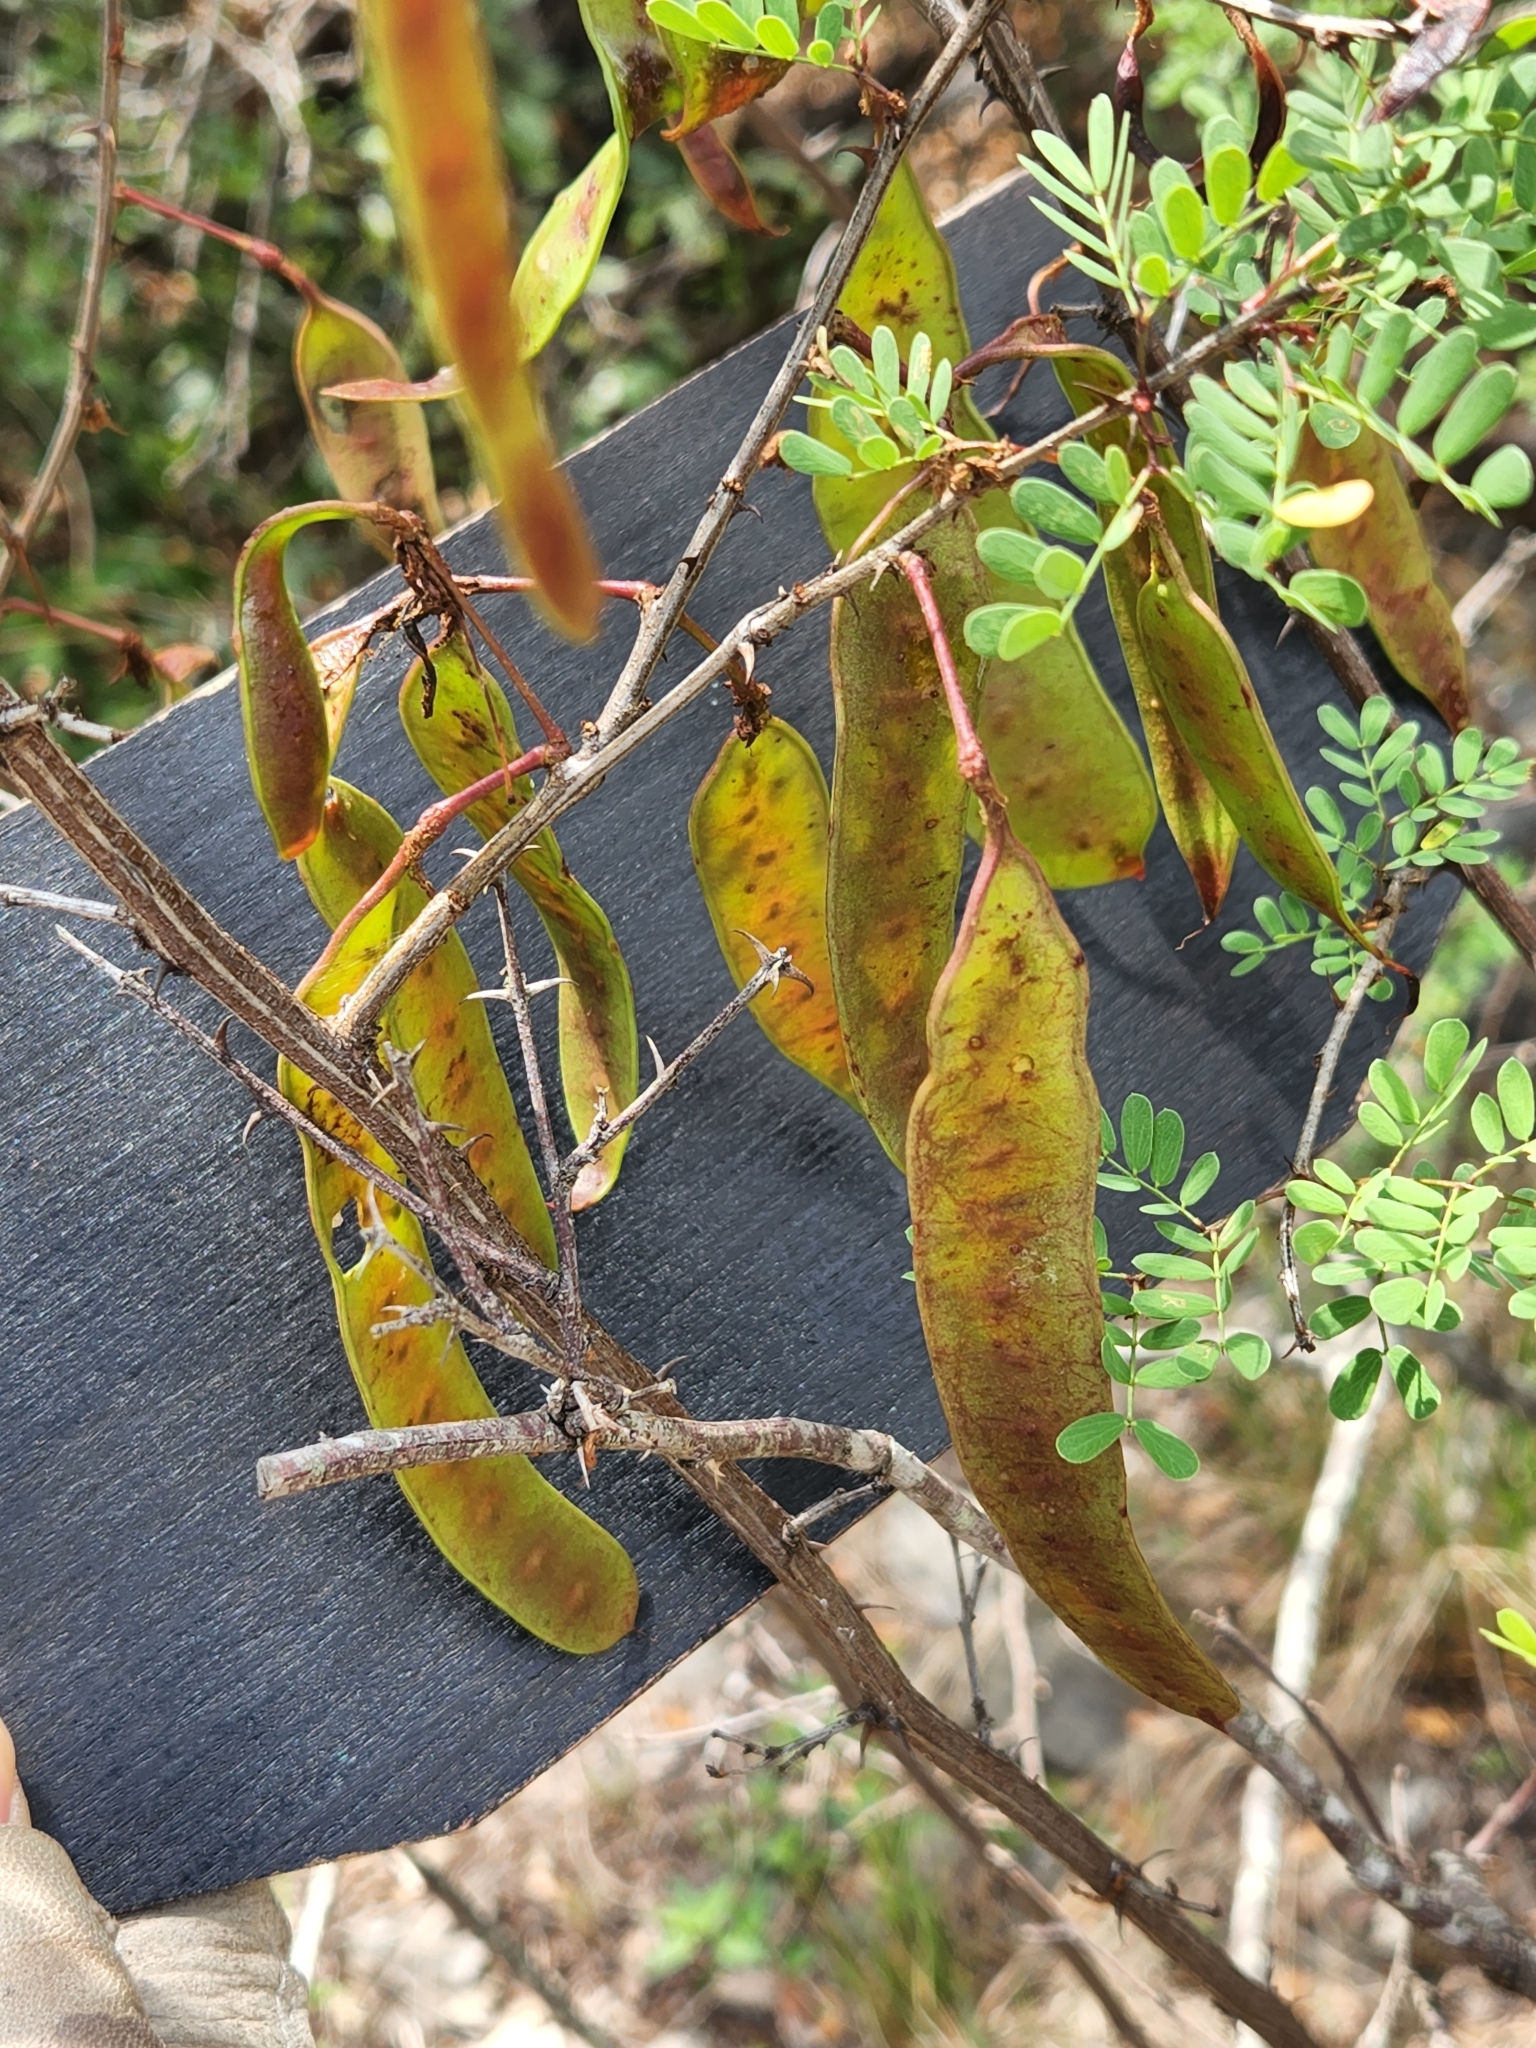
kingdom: Plantae
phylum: Tracheophyta
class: Magnoliopsida
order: Fabales
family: Fabaceae
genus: Senegalia
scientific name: Senegalia roemeriana
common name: Roemer's acacia
